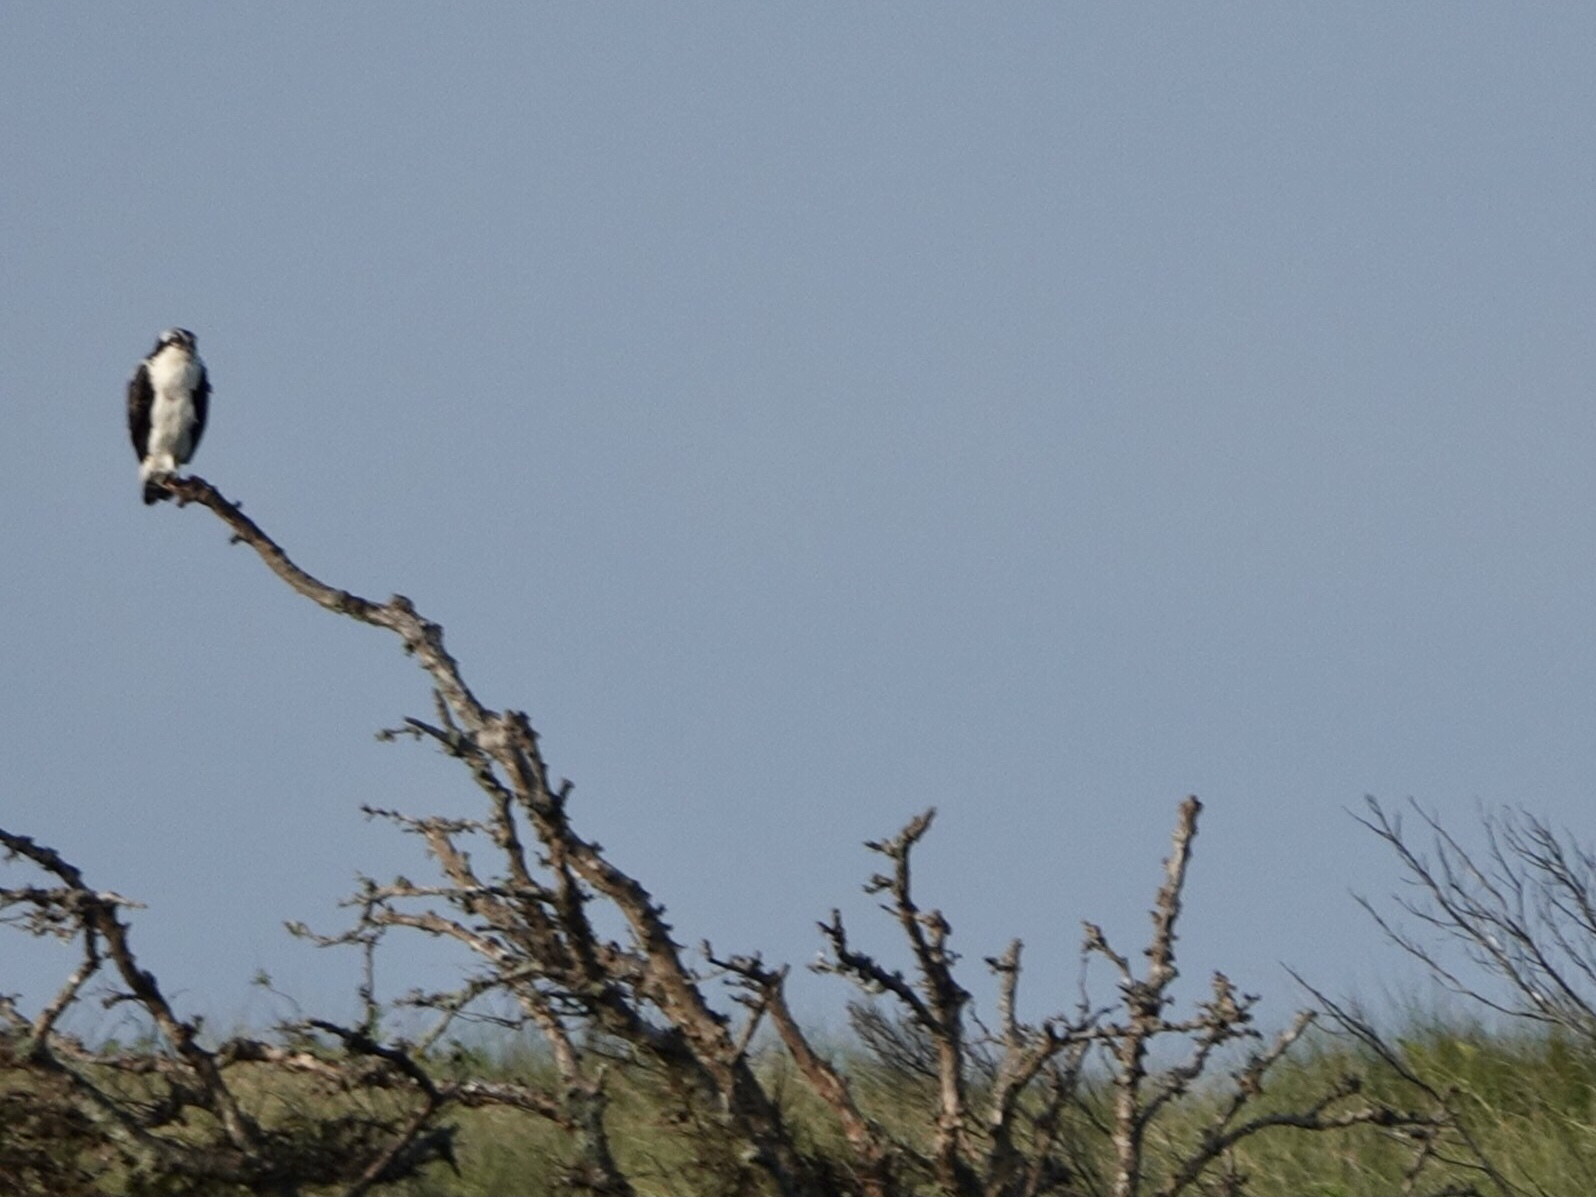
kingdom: Animalia
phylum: Chordata
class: Aves
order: Accipitriformes
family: Pandionidae
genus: Pandion
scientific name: Pandion haliaetus
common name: Osprey
